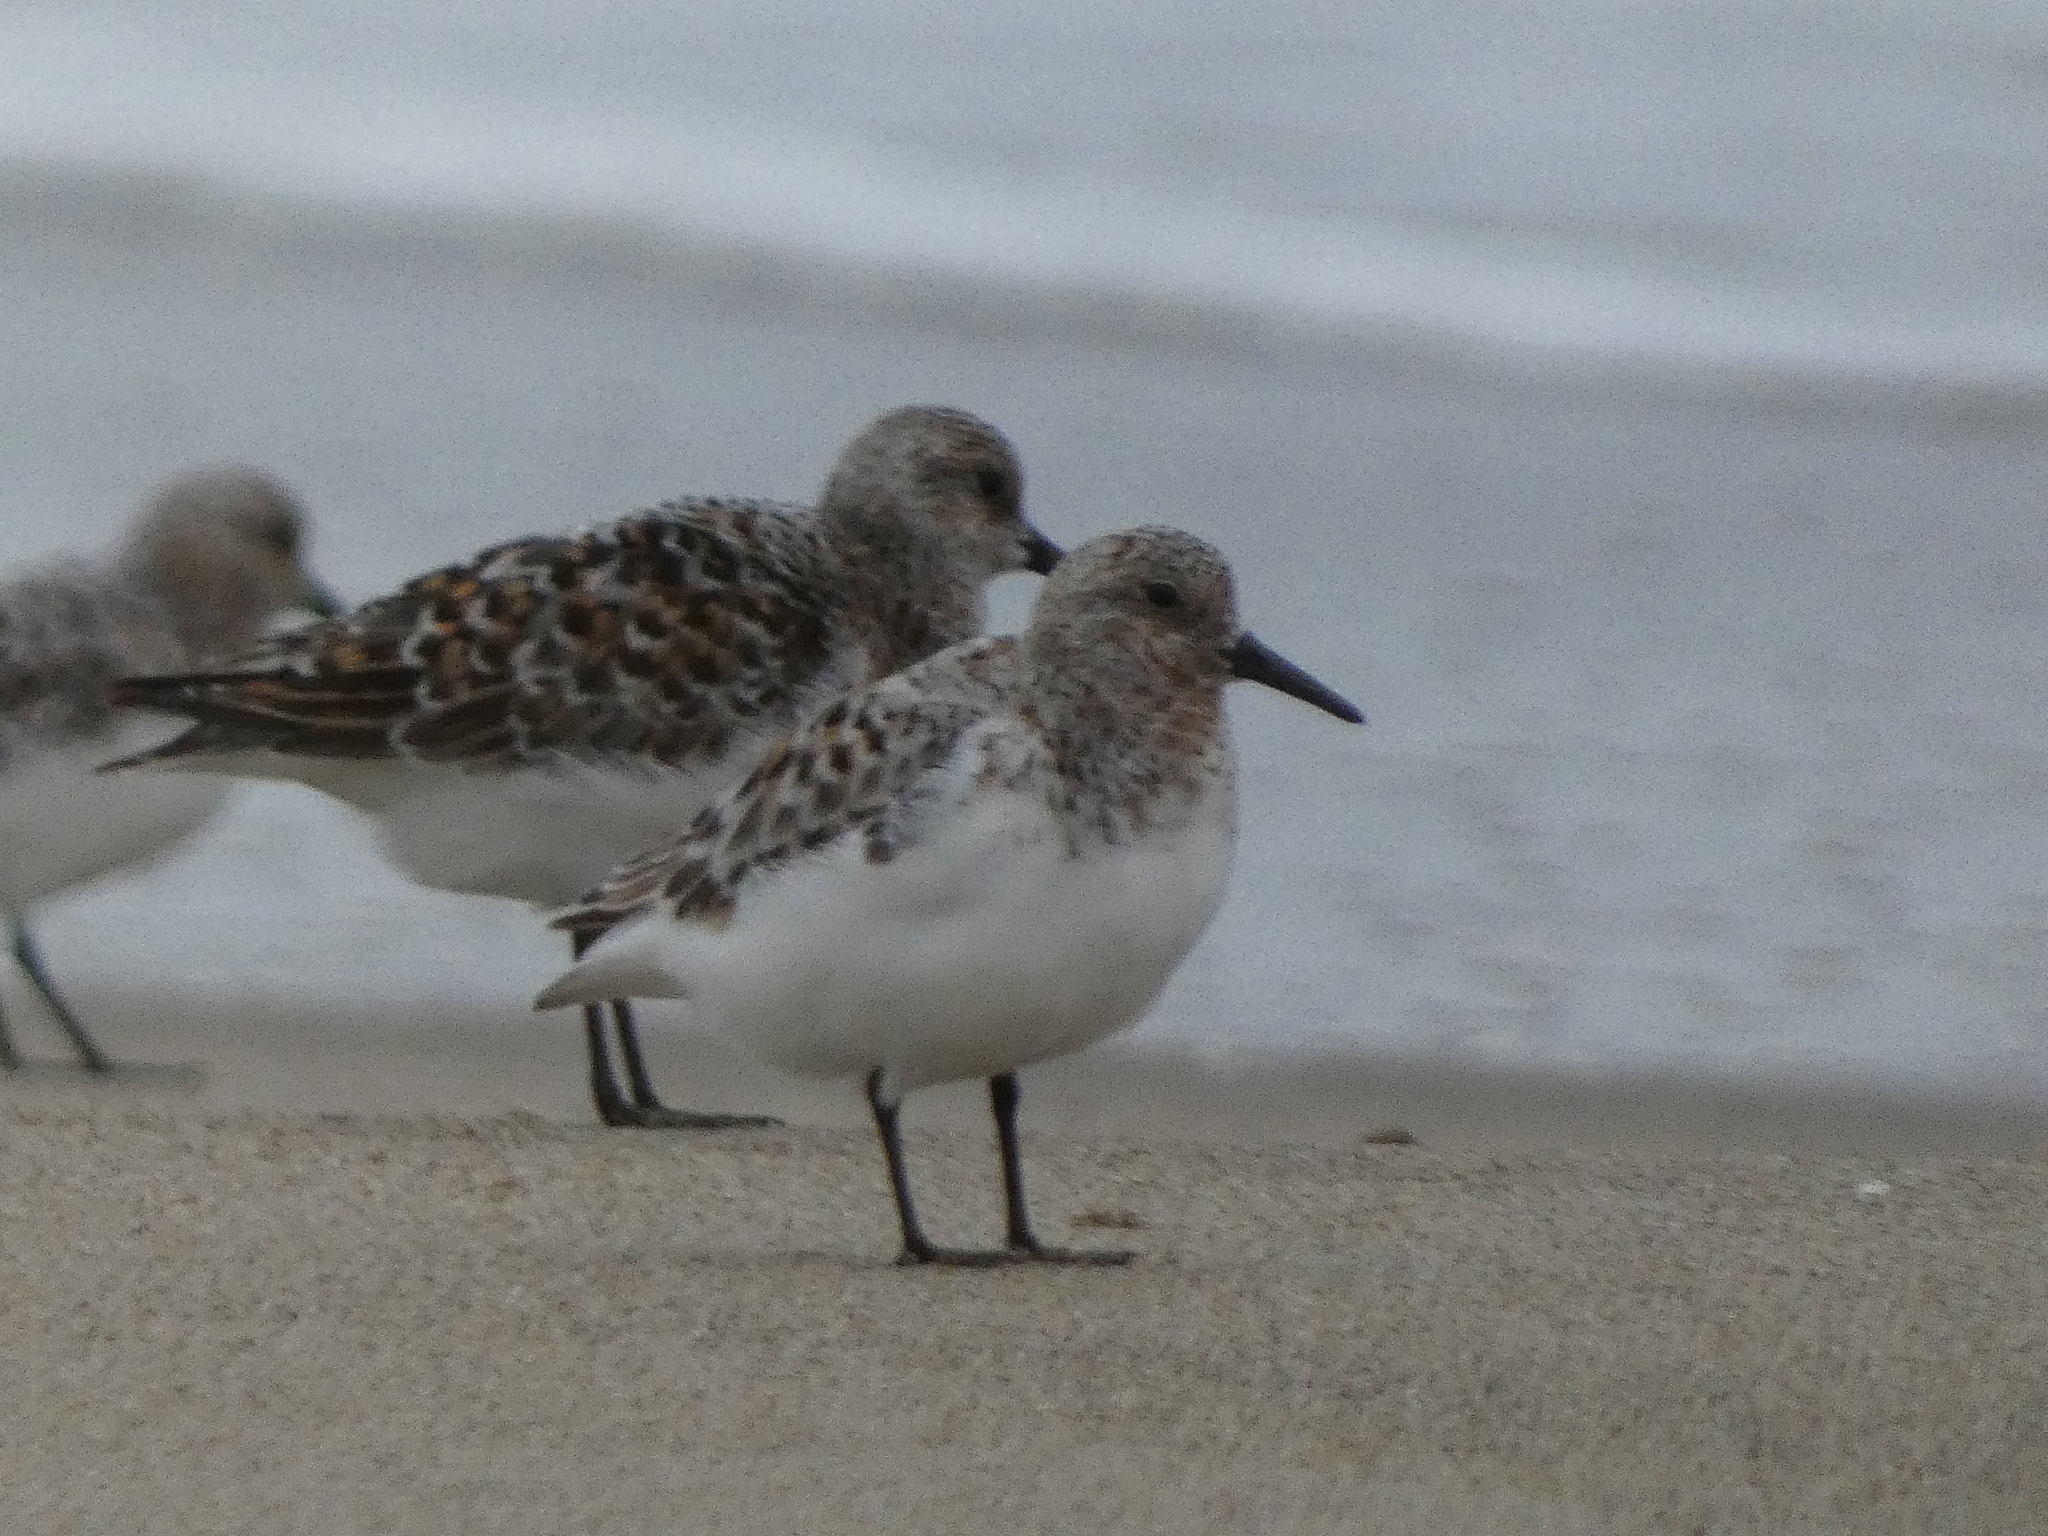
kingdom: Animalia
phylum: Chordata
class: Aves
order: Charadriiformes
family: Scolopacidae
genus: Calidris
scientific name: Calidris alba
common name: Sanderling
